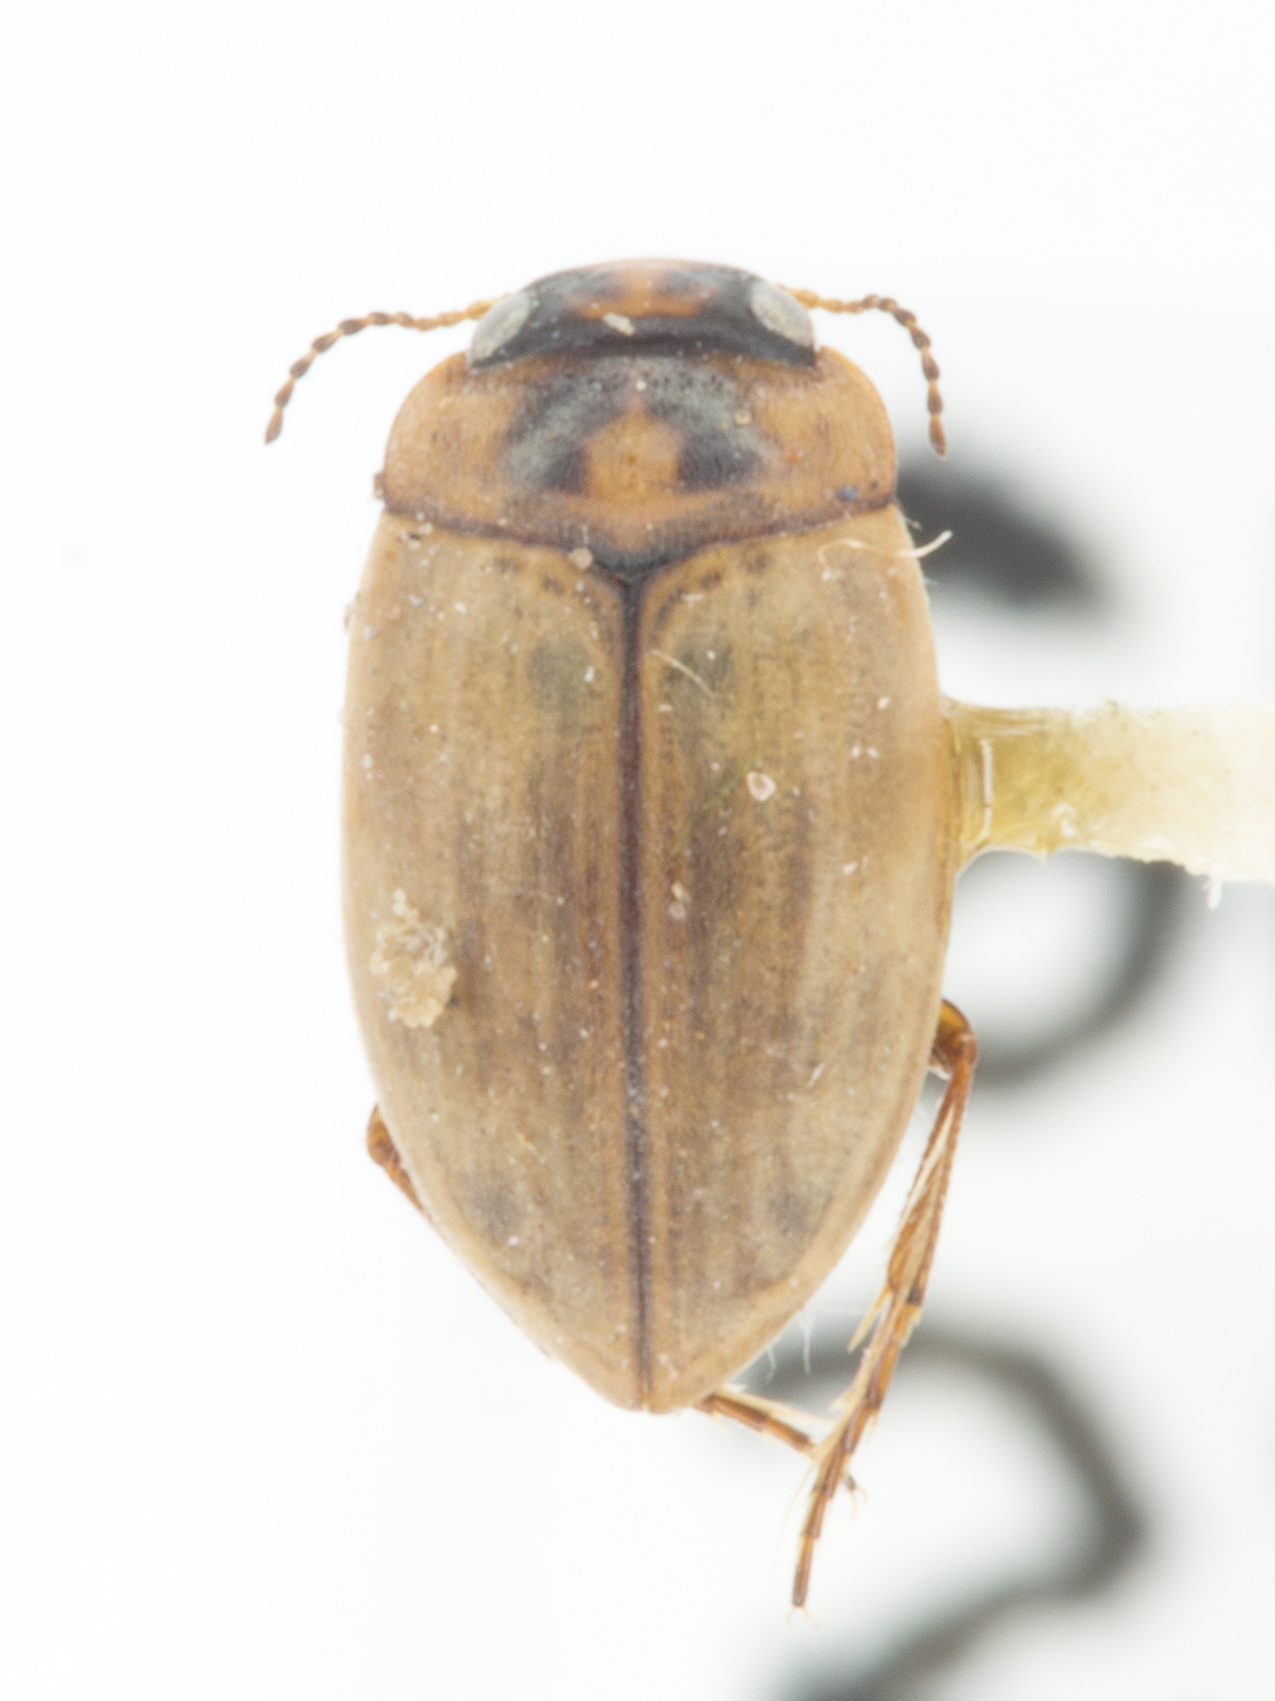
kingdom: Animalia
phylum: Arthropoda
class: Insecta
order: Coleoptera
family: Dytiscidae
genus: Leconectes
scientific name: Leconectes striatellus
